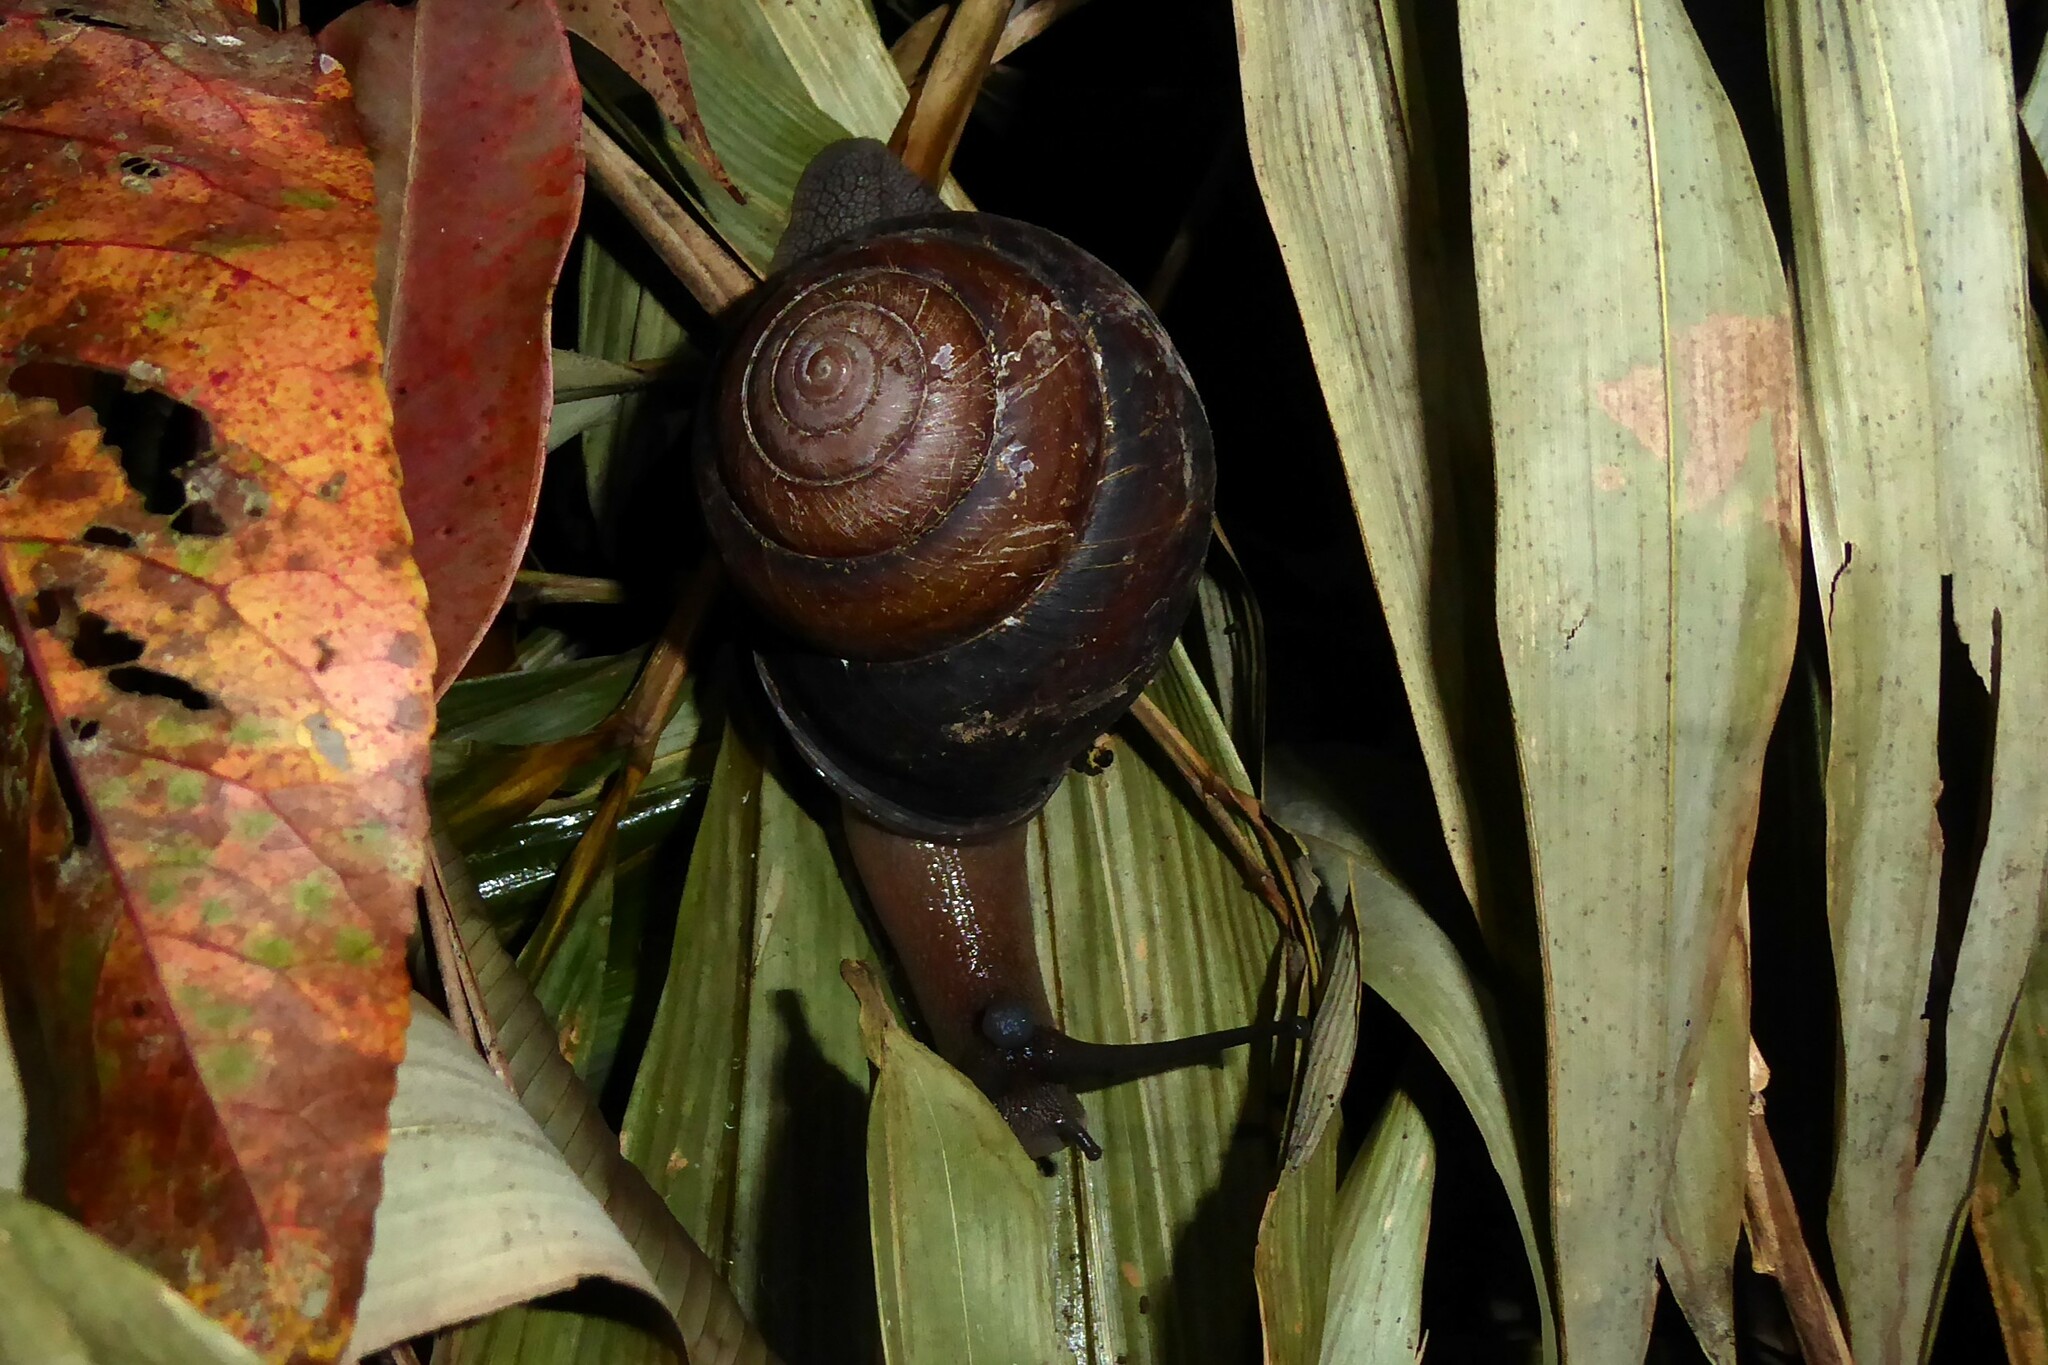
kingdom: Animalia
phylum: Mollusca
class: Gastropoda
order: Stylommatophora
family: Camaenidae
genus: Sphaerospira
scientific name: Sphaerospira fraseri
